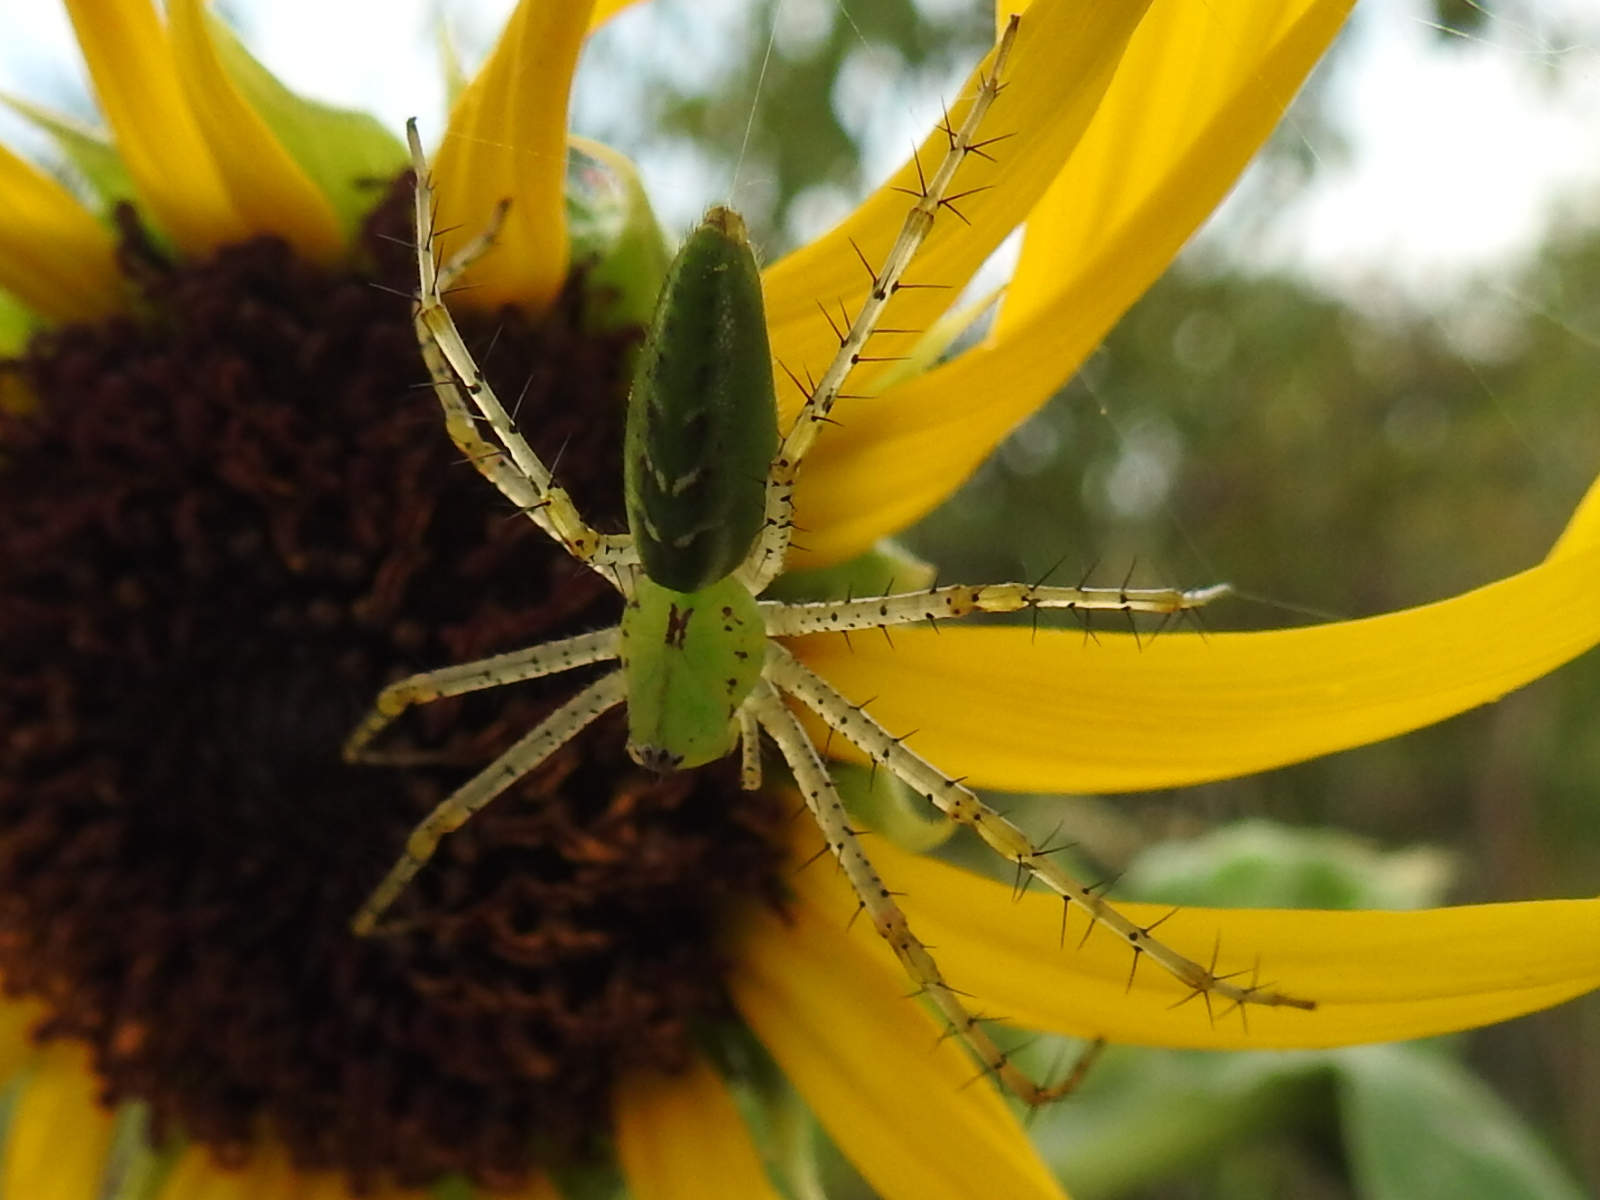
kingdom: Animalia
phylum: Arthropoda
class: Arachnida
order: Araneae
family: Oxyopidae
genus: Peucetia
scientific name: Peucetia viridans
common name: Lynx spiders
